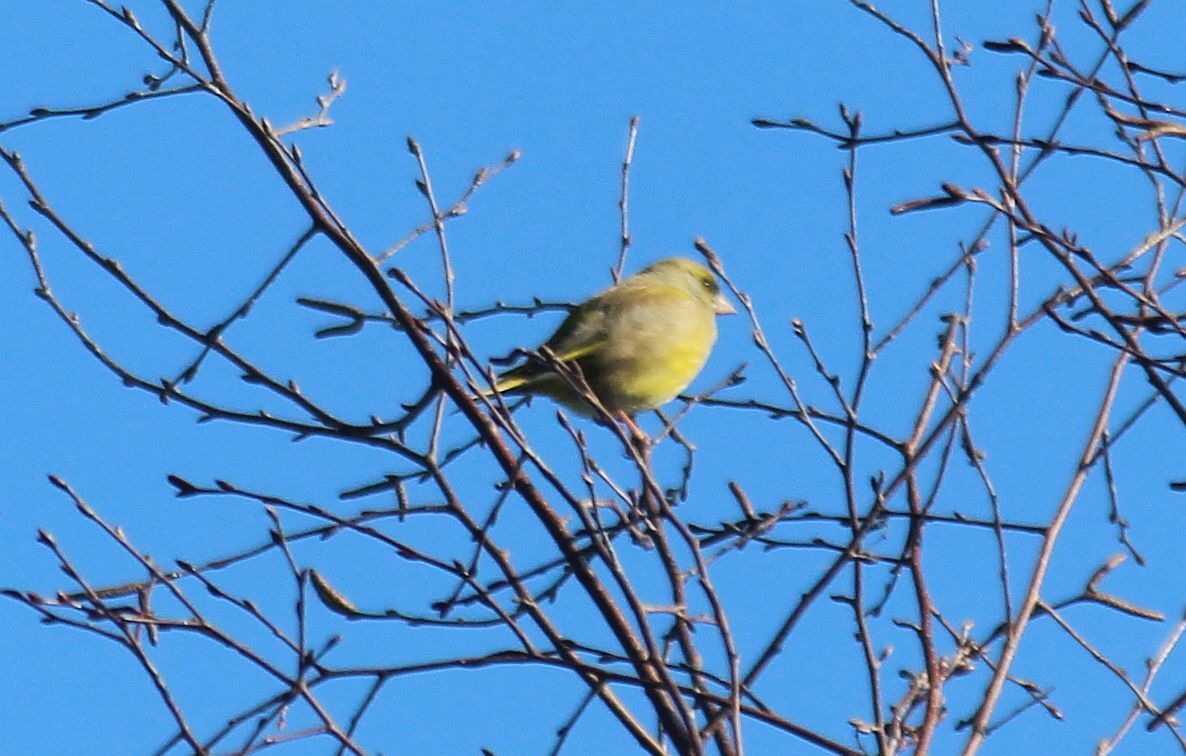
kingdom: Plantae
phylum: Tracheophyta
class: Liliopsida
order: Poales
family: Poaceae
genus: Chloris
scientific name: Chloris chloris
